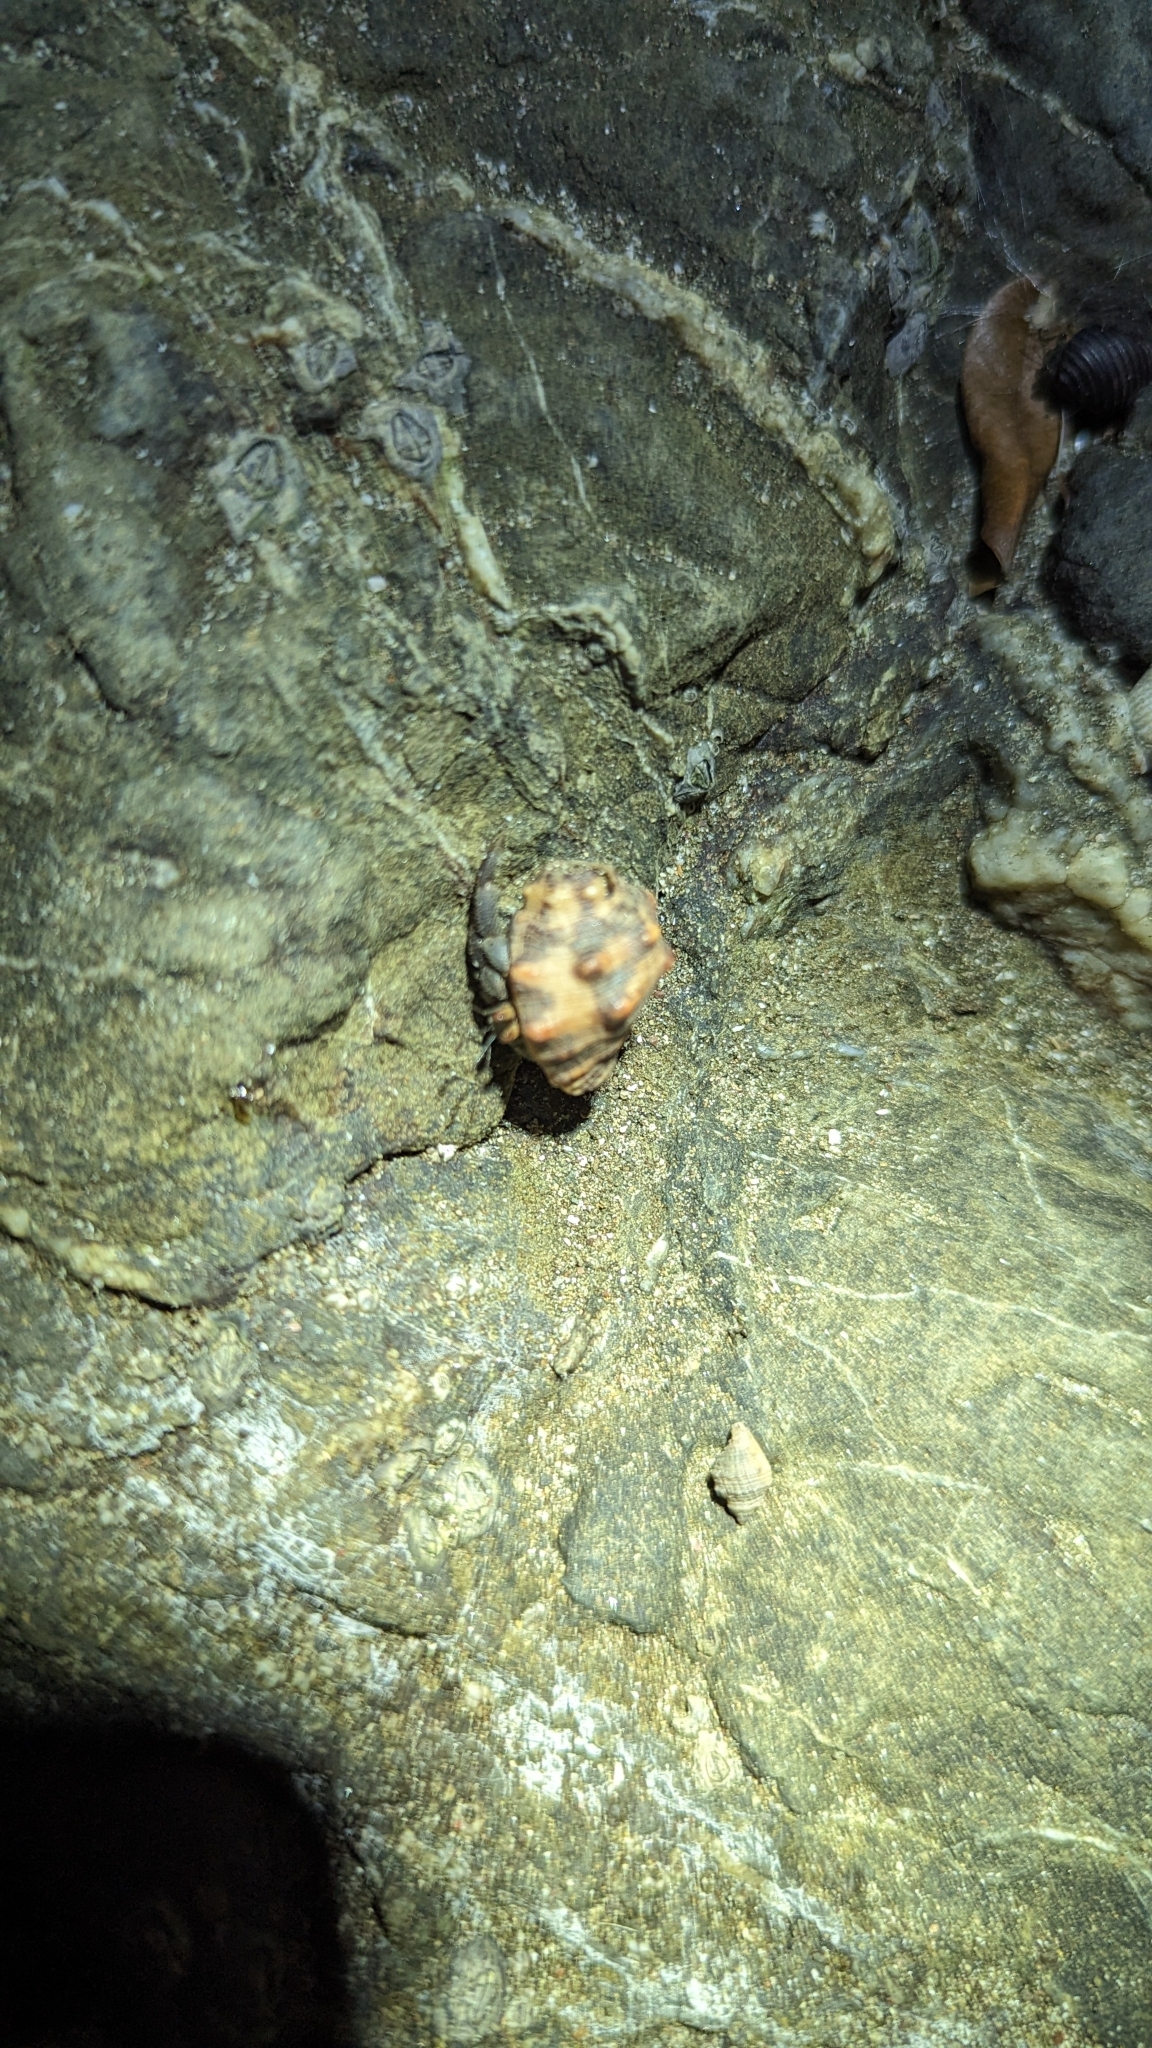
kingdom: Animalia
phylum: Arthropoda
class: Malacostraca
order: Decapoda
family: Coenobitidae
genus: Coenobita
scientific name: Coenobita compressus
